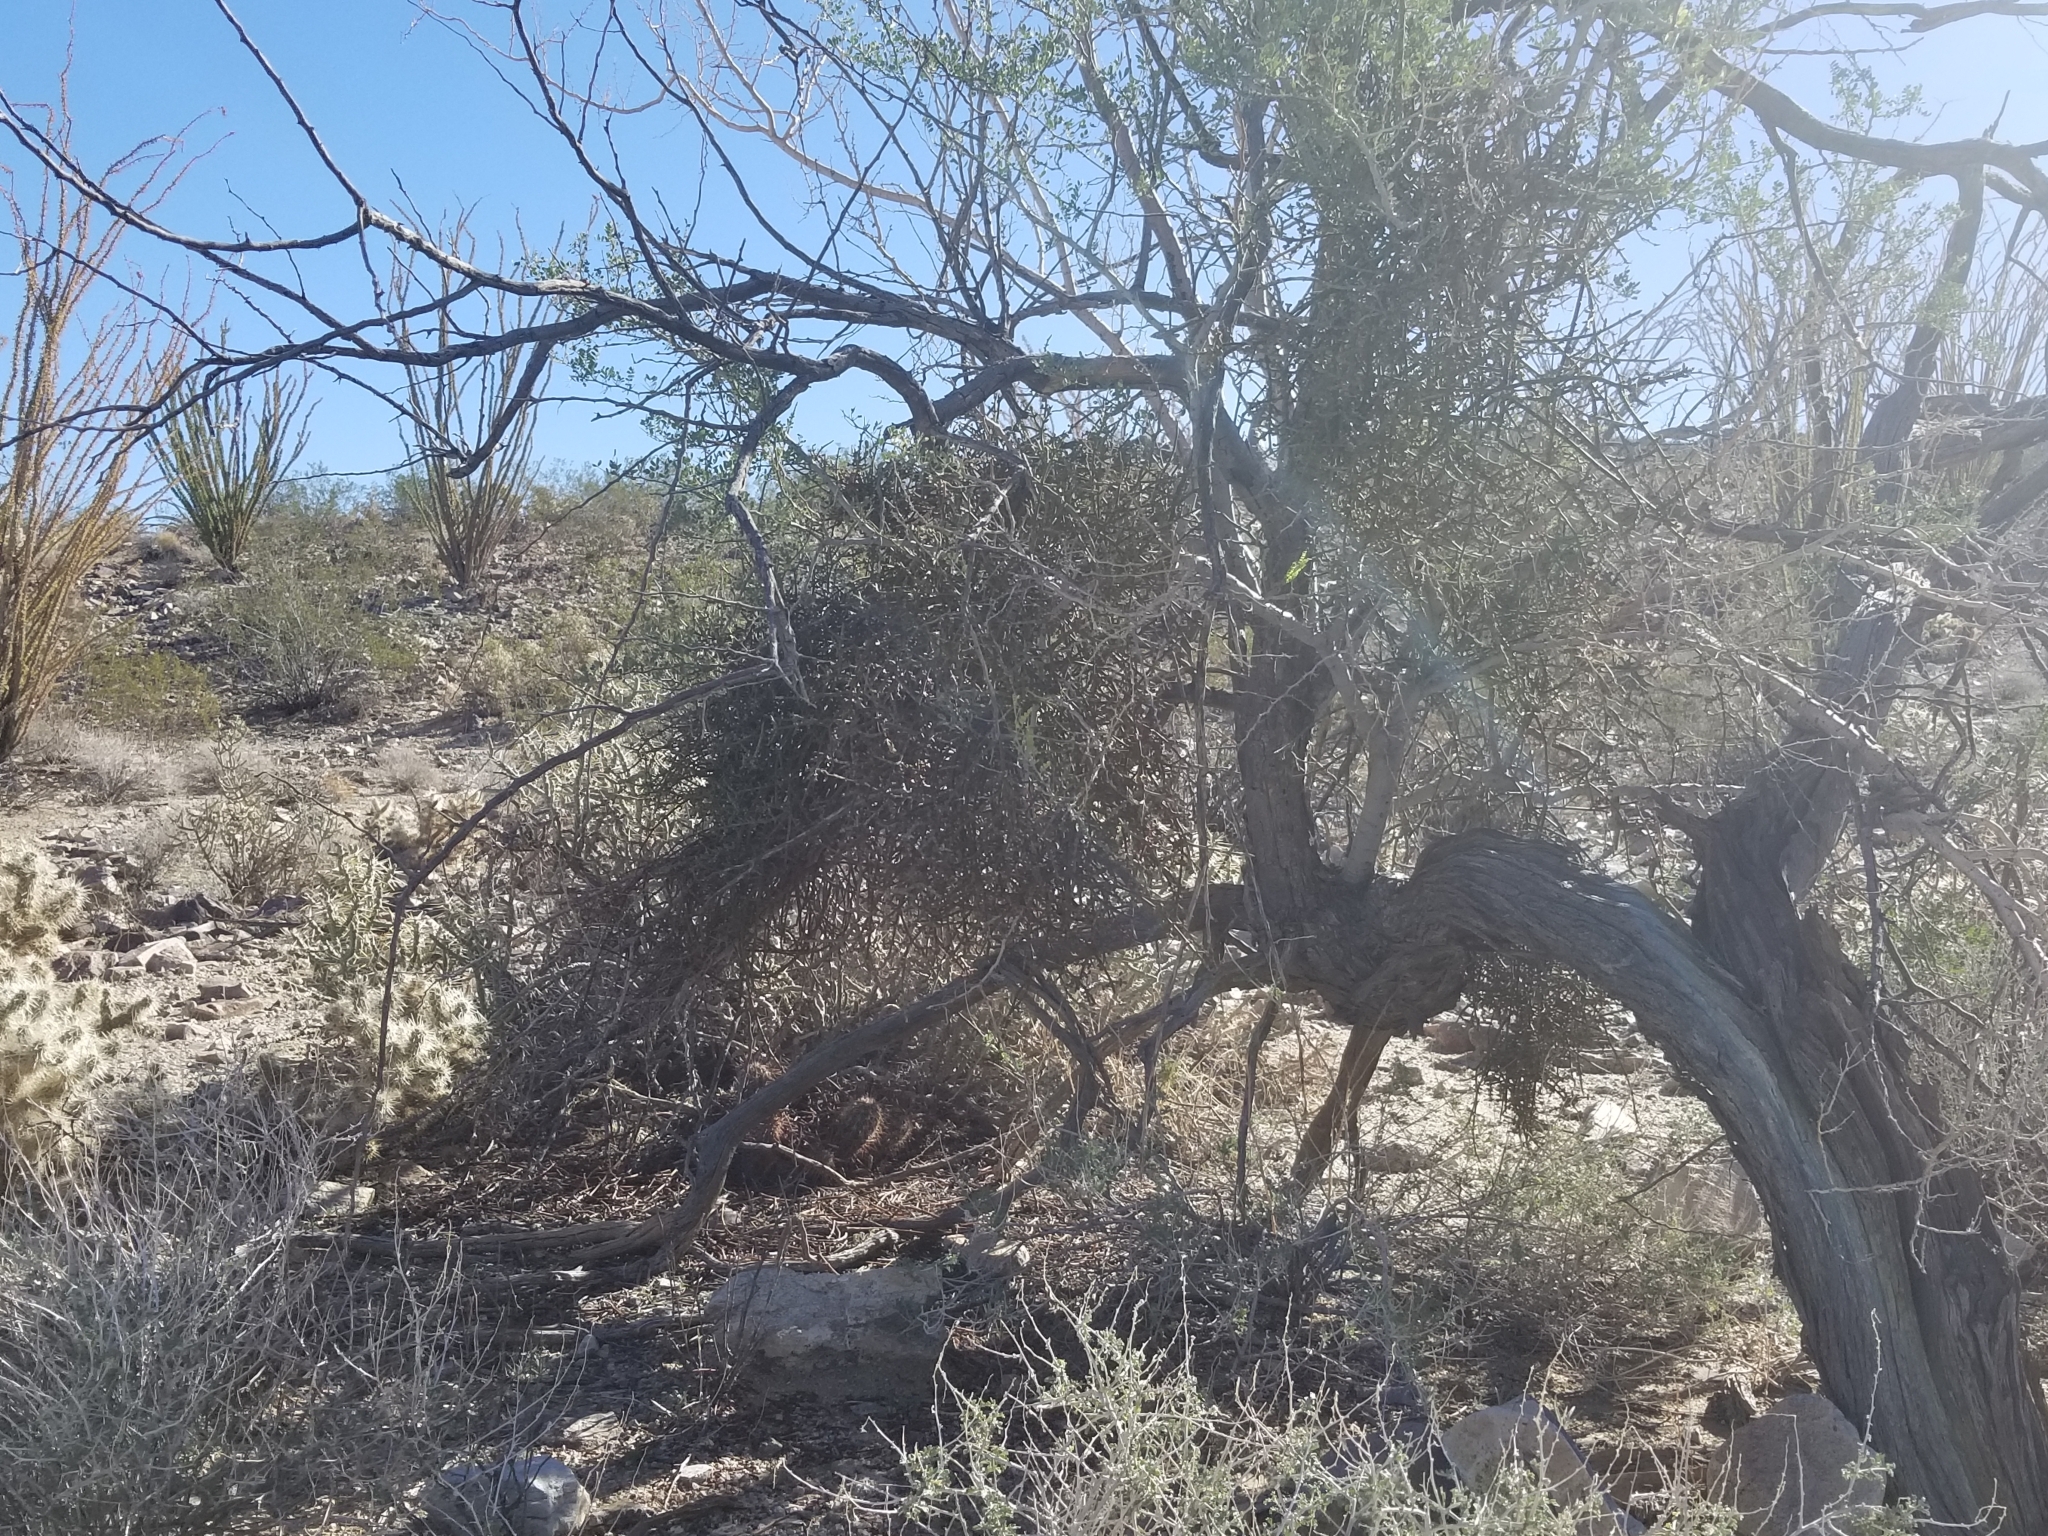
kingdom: Plantae
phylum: Tracheophyta
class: Magnoliopsida
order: Santalales
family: Viscaceae
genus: Phoradendron
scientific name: Phoradendron californicum
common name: Acacia mistletoe
